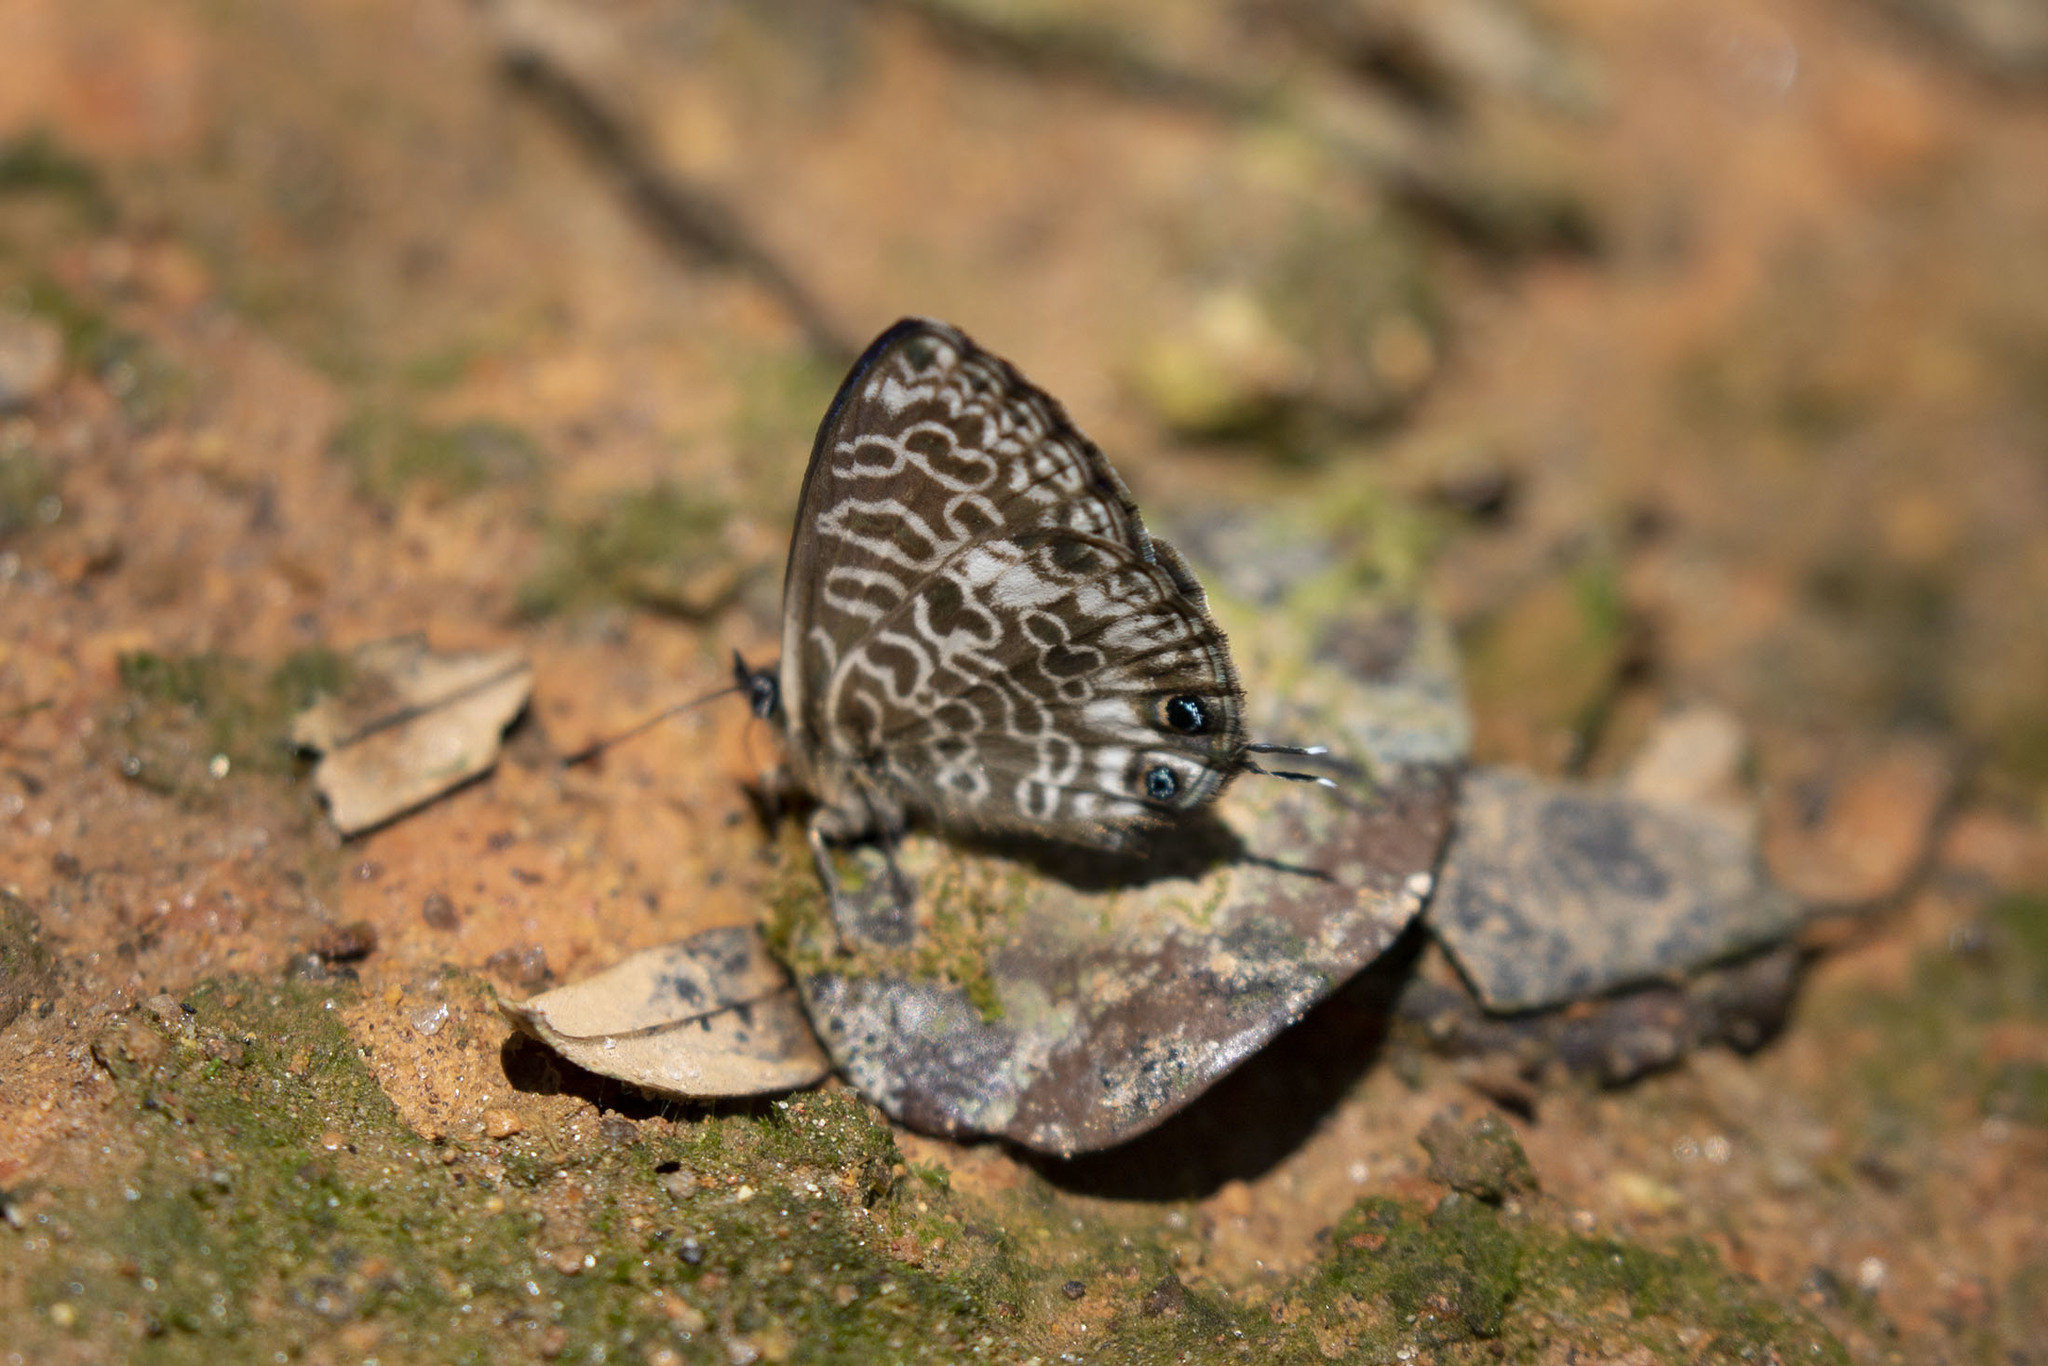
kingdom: Animalia
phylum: Arthropoda
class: Insecta
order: Lepidoptera
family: Lycaenidae
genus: Leptotes
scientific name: Leptotes rabenafer
